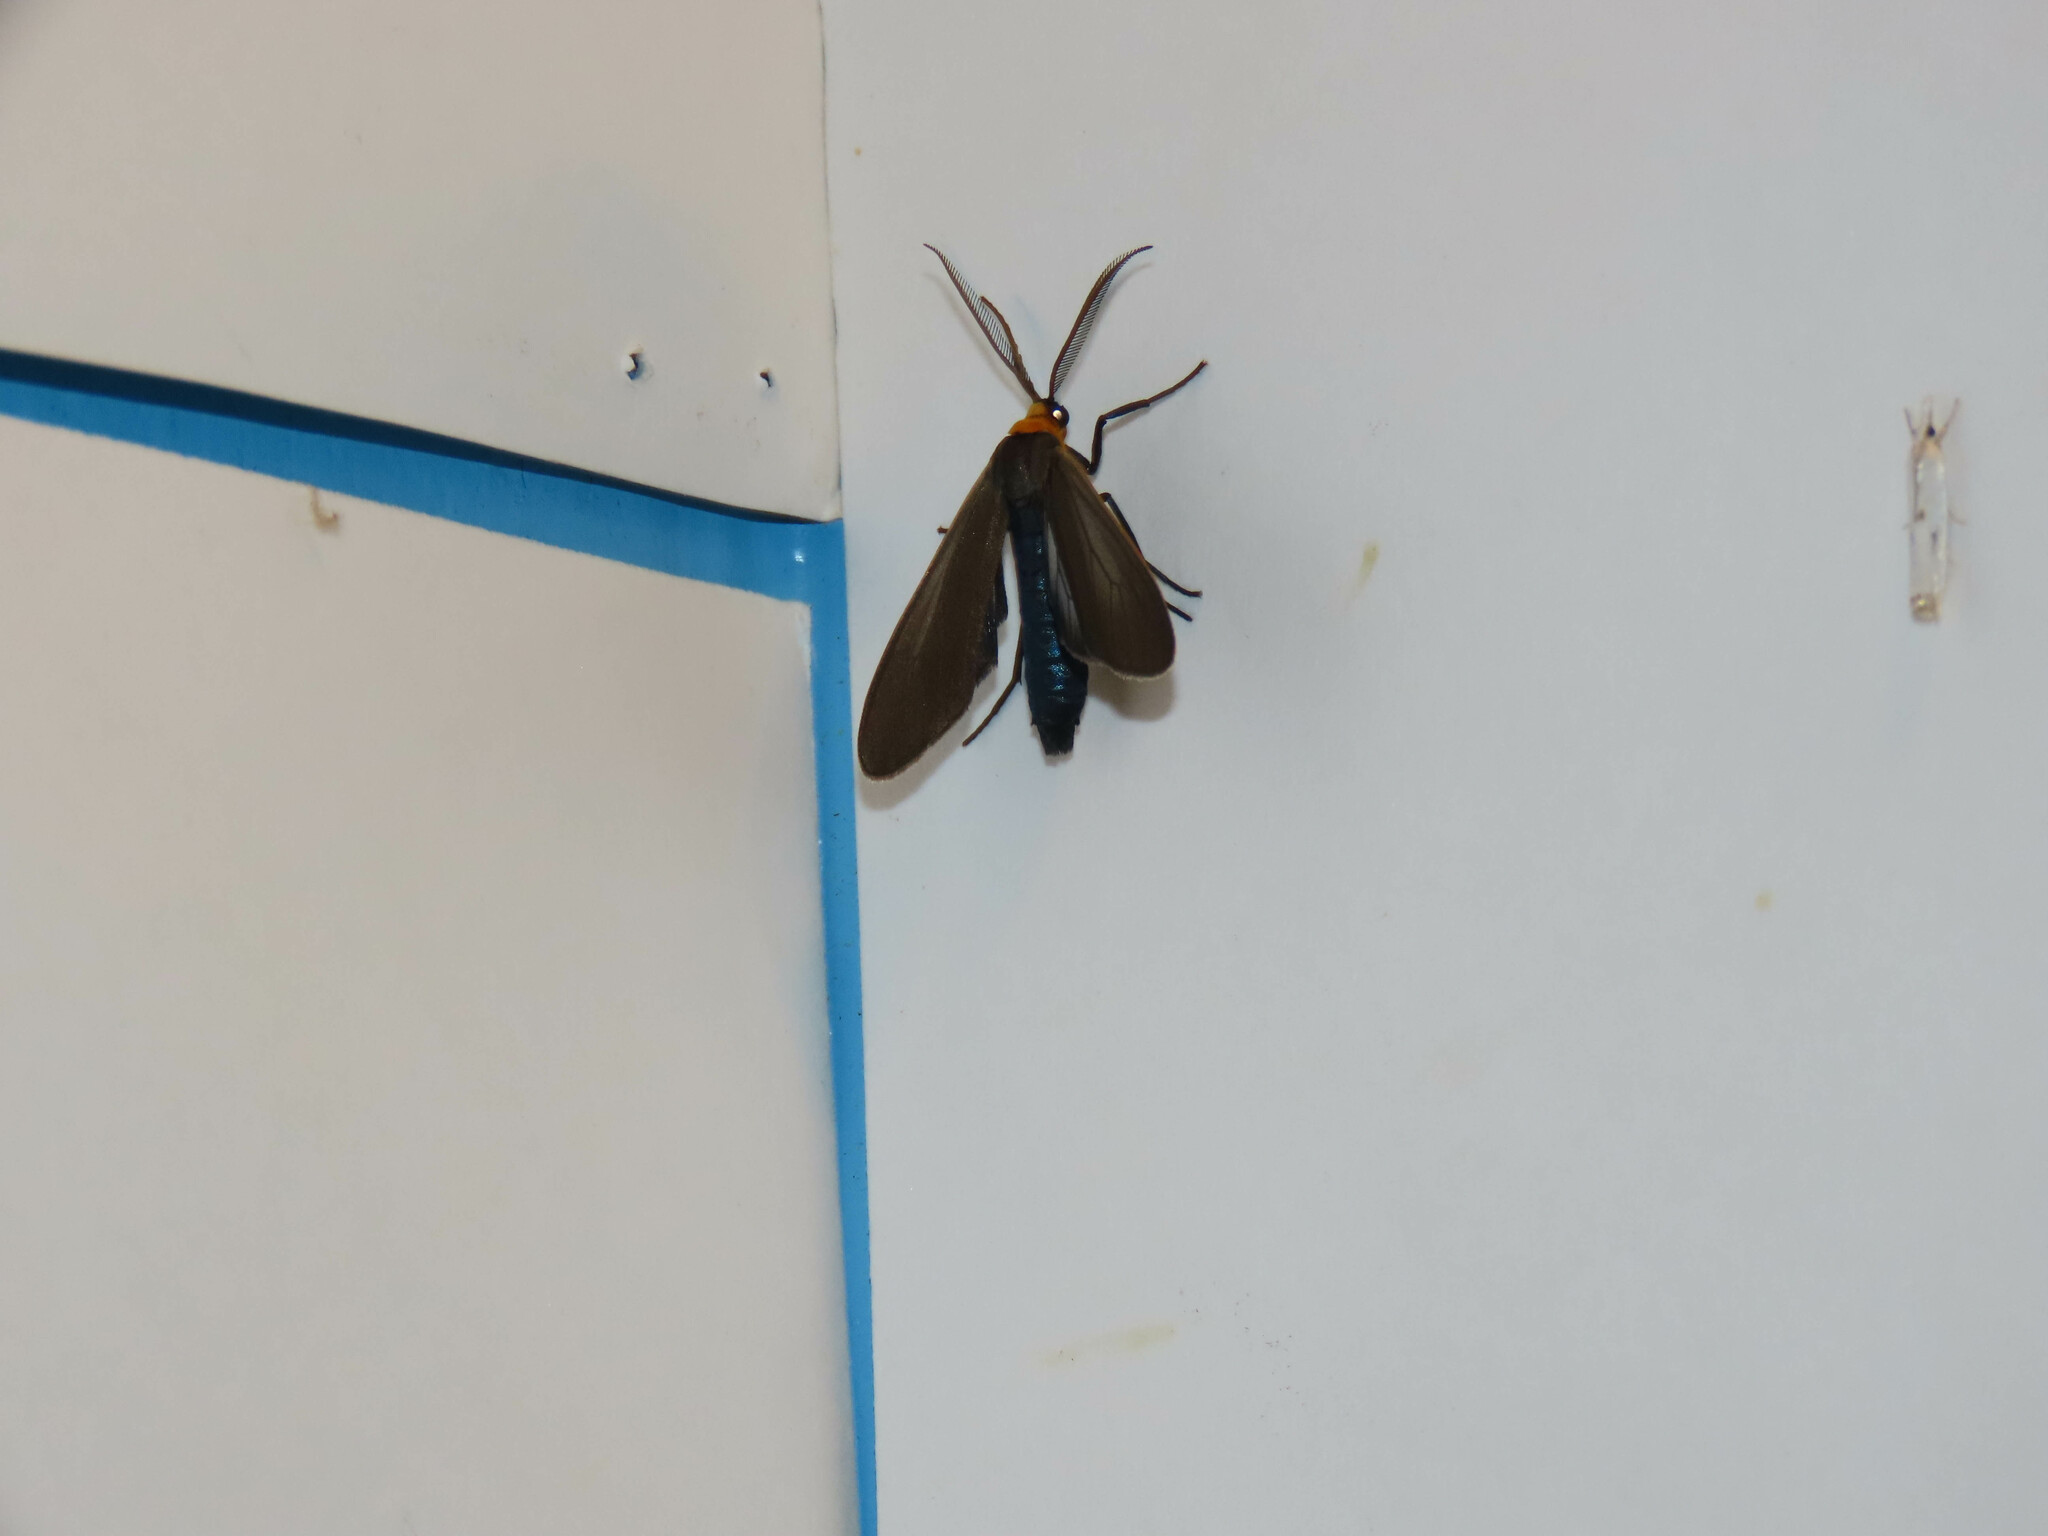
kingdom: Animalia
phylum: Arthropoda
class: Insecta
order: Lepidoptera
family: Erebidae
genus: Cisseps
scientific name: Cisseps fulvicollis
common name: Yellow-collared scape moth
